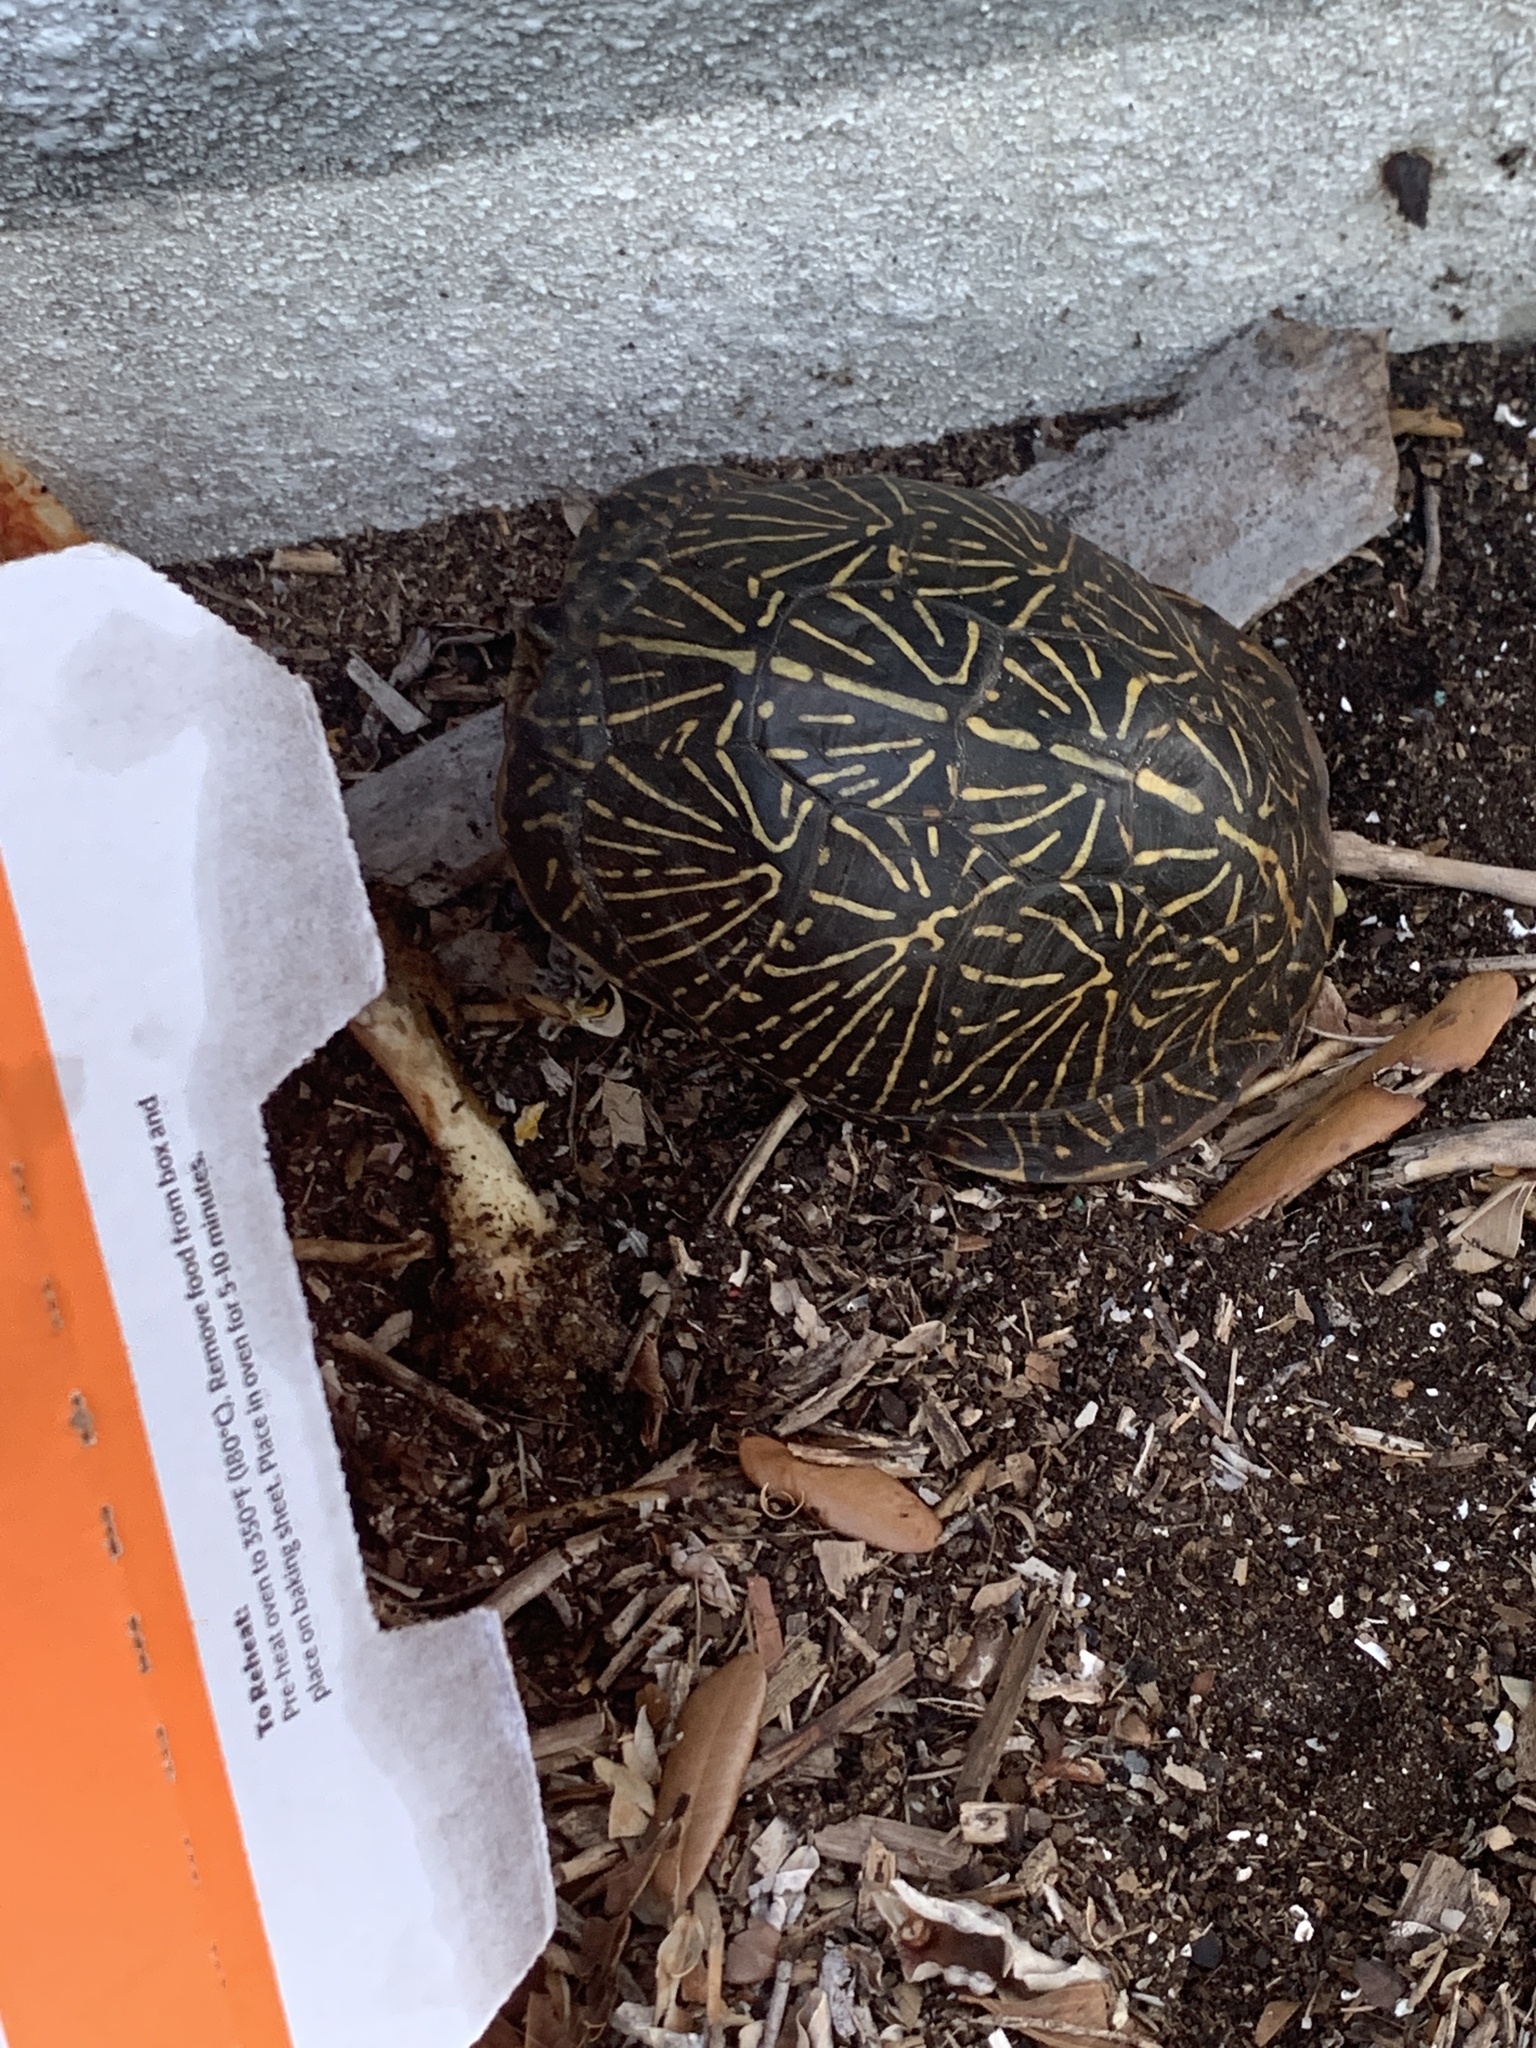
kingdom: Animalia
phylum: Chordata
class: Testudines
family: Emydidae
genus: Terrapene
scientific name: Terrapene carolina
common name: Common box turtle
